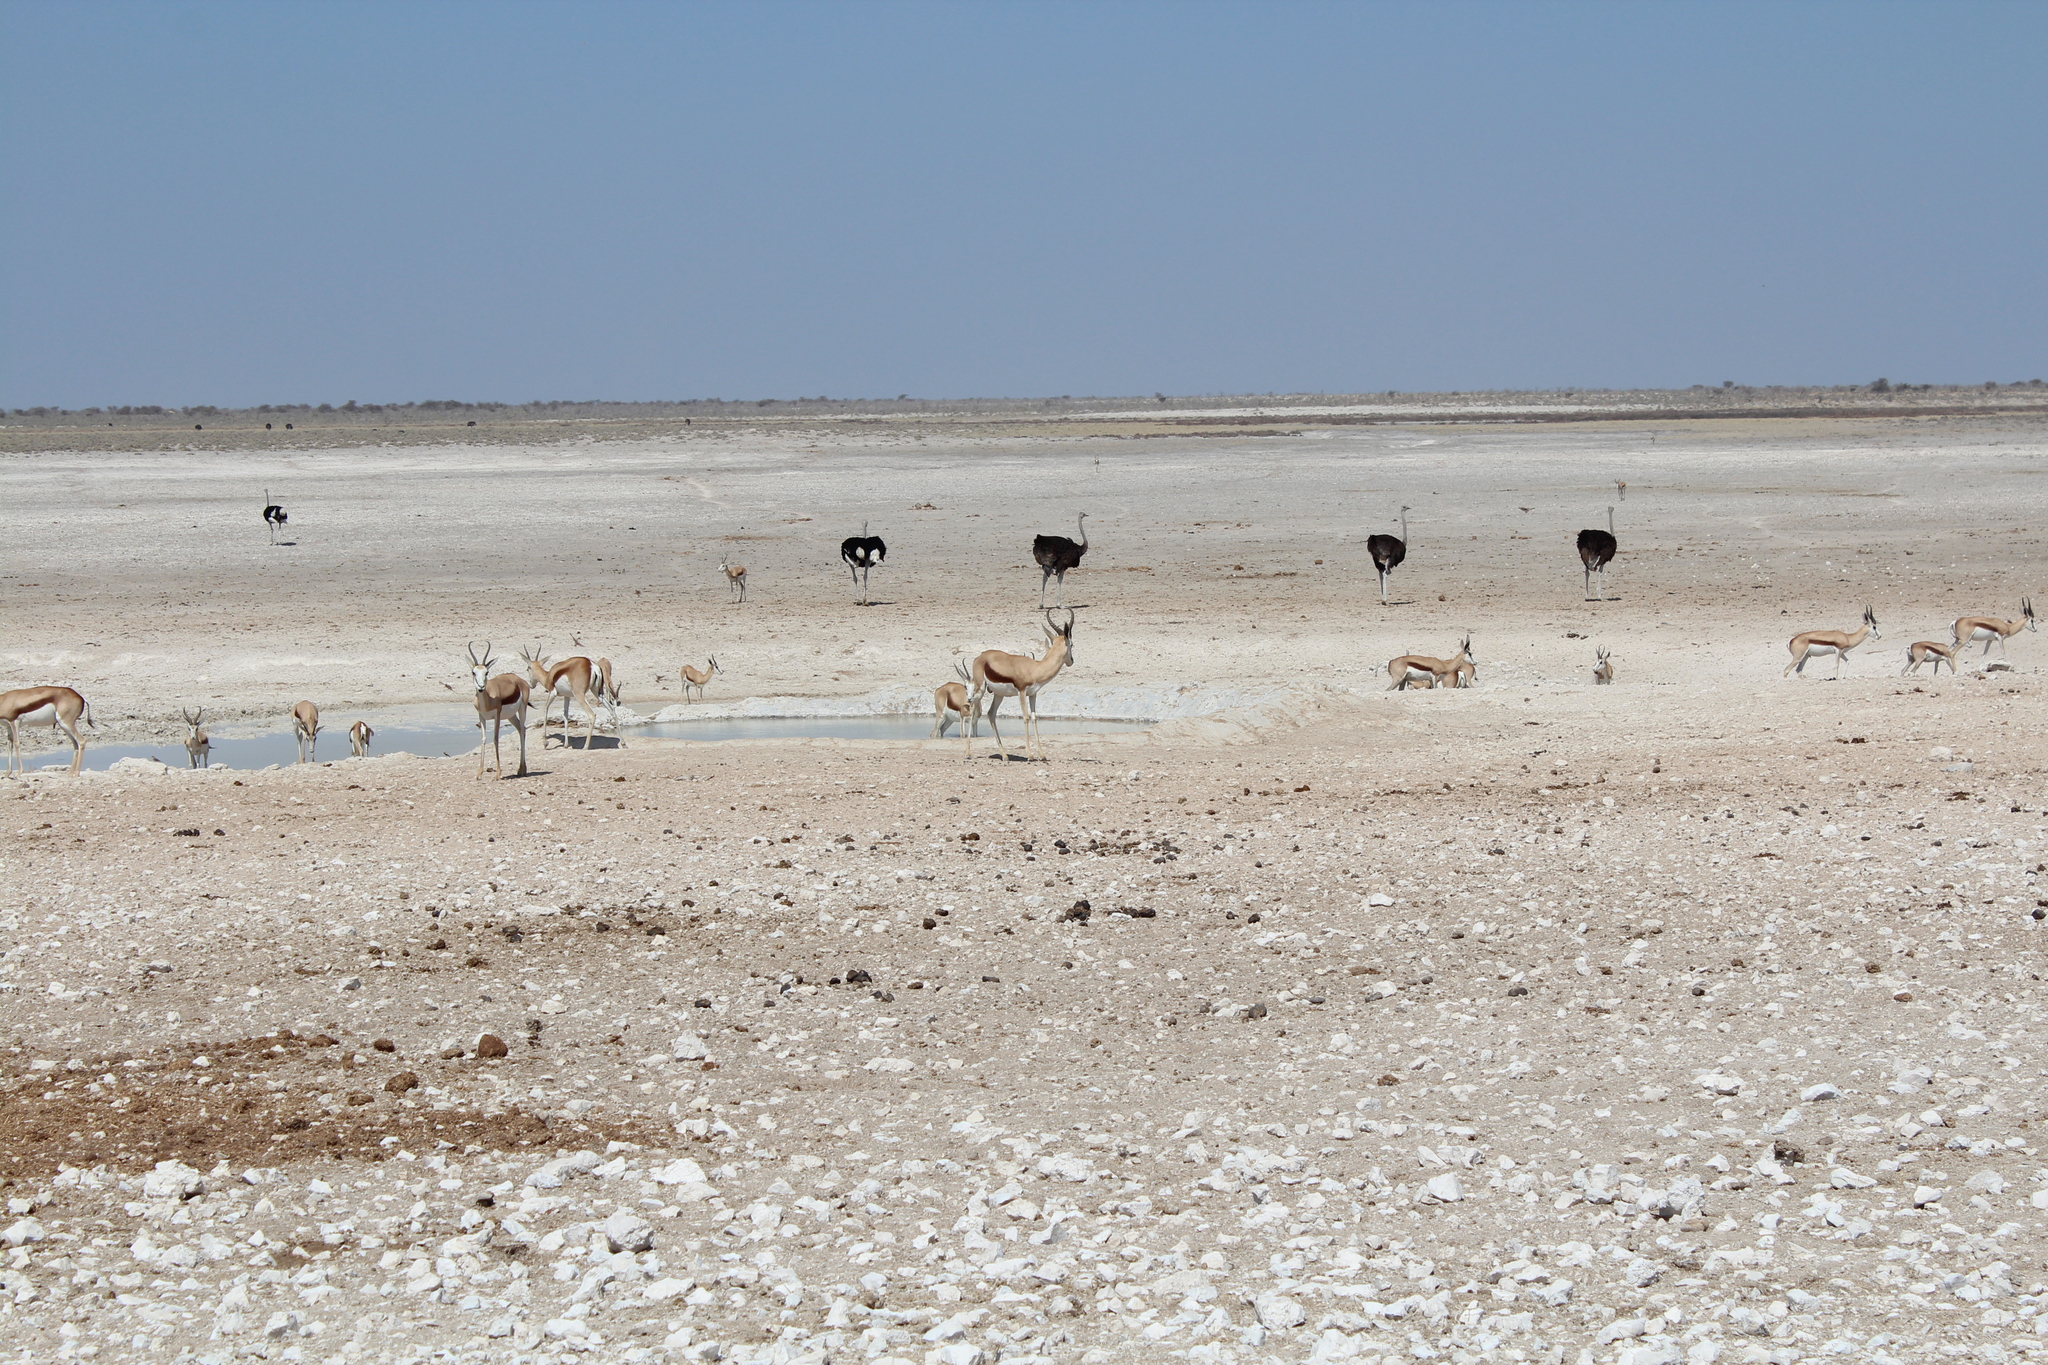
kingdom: Animalia
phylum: Chordata
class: Aves
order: Struthioniformes
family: Struthionidae
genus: Struthio
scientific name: Struthio camelus
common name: Common ostrich
